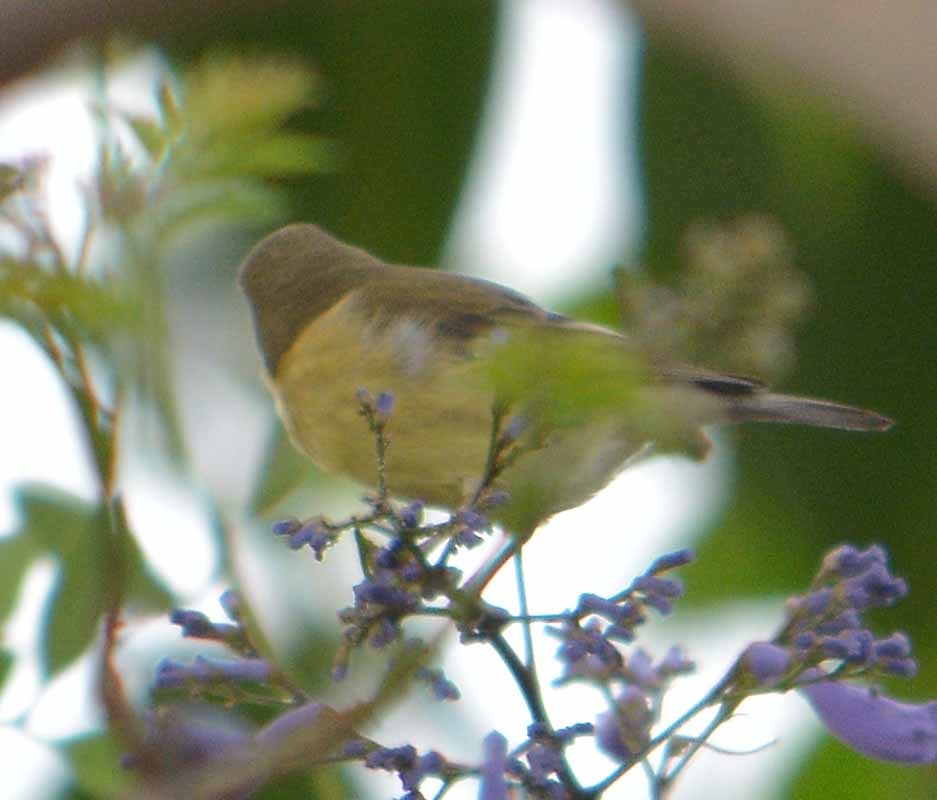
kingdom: Animalia
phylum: Chordata
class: Aves
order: Passeriformes
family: Fringillidae
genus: Spinus
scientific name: Spinus psaltria
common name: Lesser goldfinch
